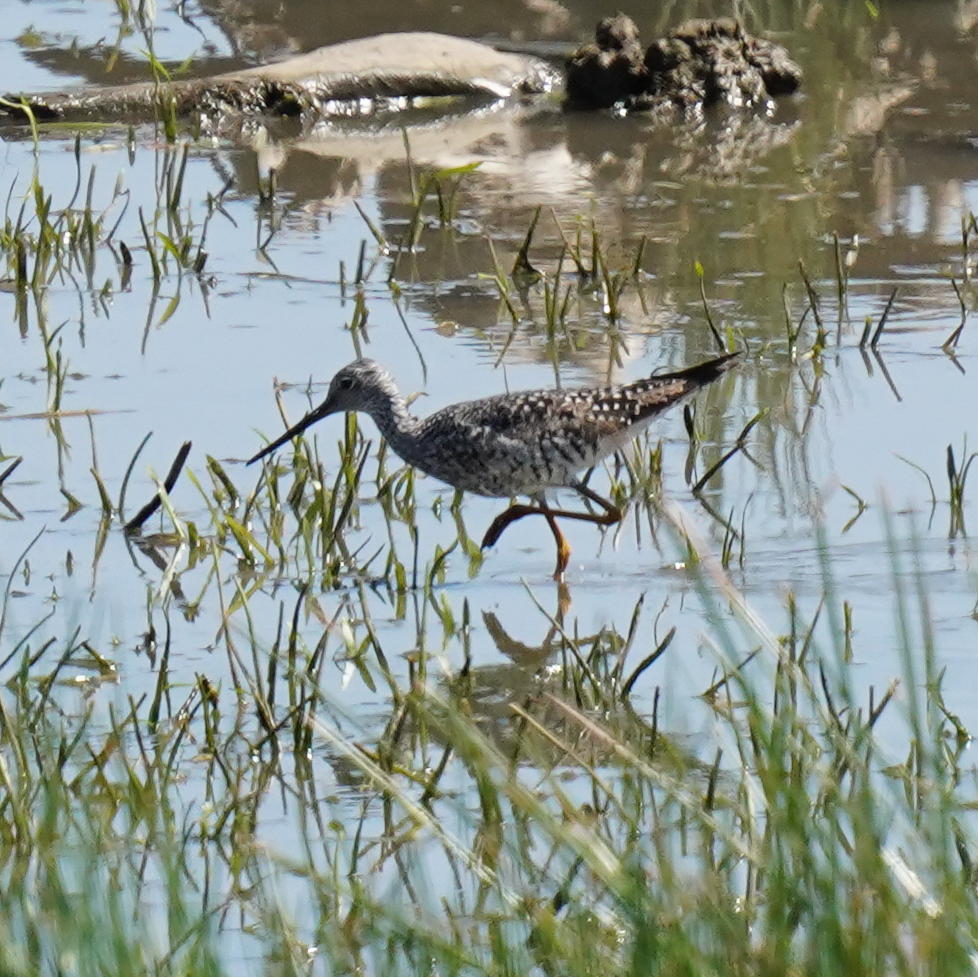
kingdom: Animalia
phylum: Chordata
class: Aves
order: Charadriiformes
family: Scolopacidae
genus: Tringa
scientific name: Tringa melanoleuca
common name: Greater yellowlegs
